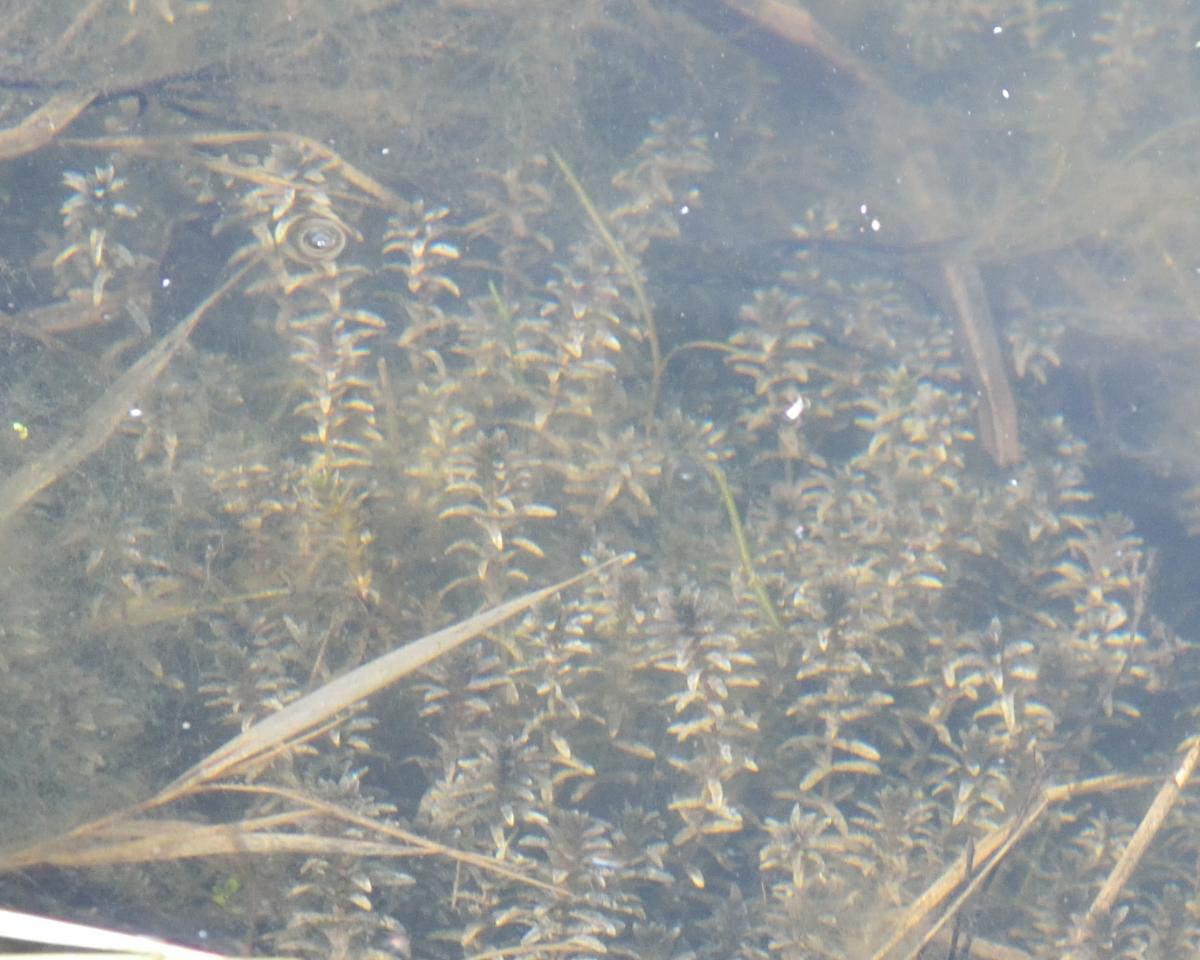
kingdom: Plantae
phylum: Tracheophyta
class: Liliopsida
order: Alismatales
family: Hydrocharitaceae
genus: Elodea
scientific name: Elodea canadensis
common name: Canadian waterweed
